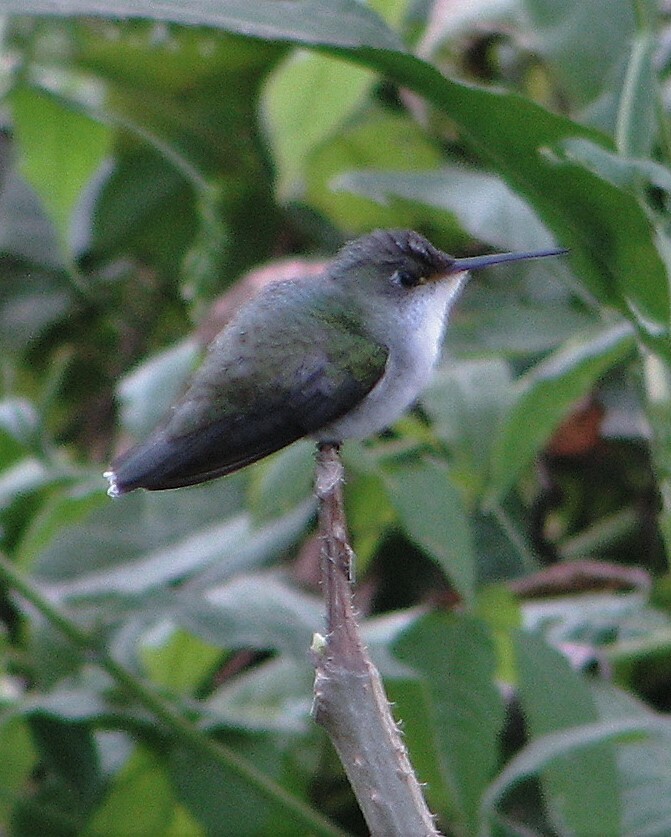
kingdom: Animalia
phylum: Chordata
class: Aves
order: Apodiformes
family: Trochilidae
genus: Elliotomyia
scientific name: Elliotomyia chionogaster
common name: White-bellied hummingbird
